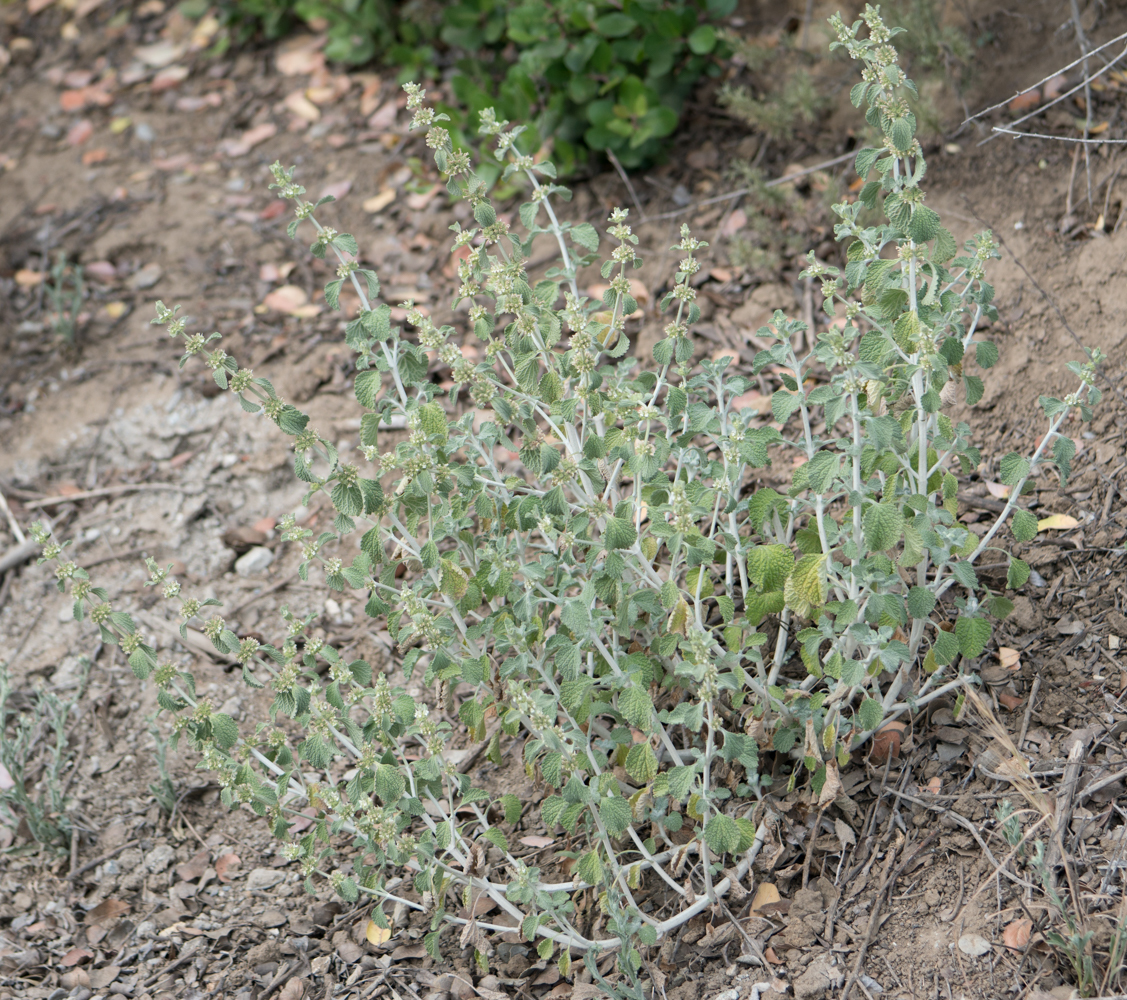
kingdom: Plantae
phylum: Tracheophyta
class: Magnoliopsida
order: Lamiales
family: Lamiaceae
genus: Marrubium
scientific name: Marrubium vulgare
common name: Horehound
